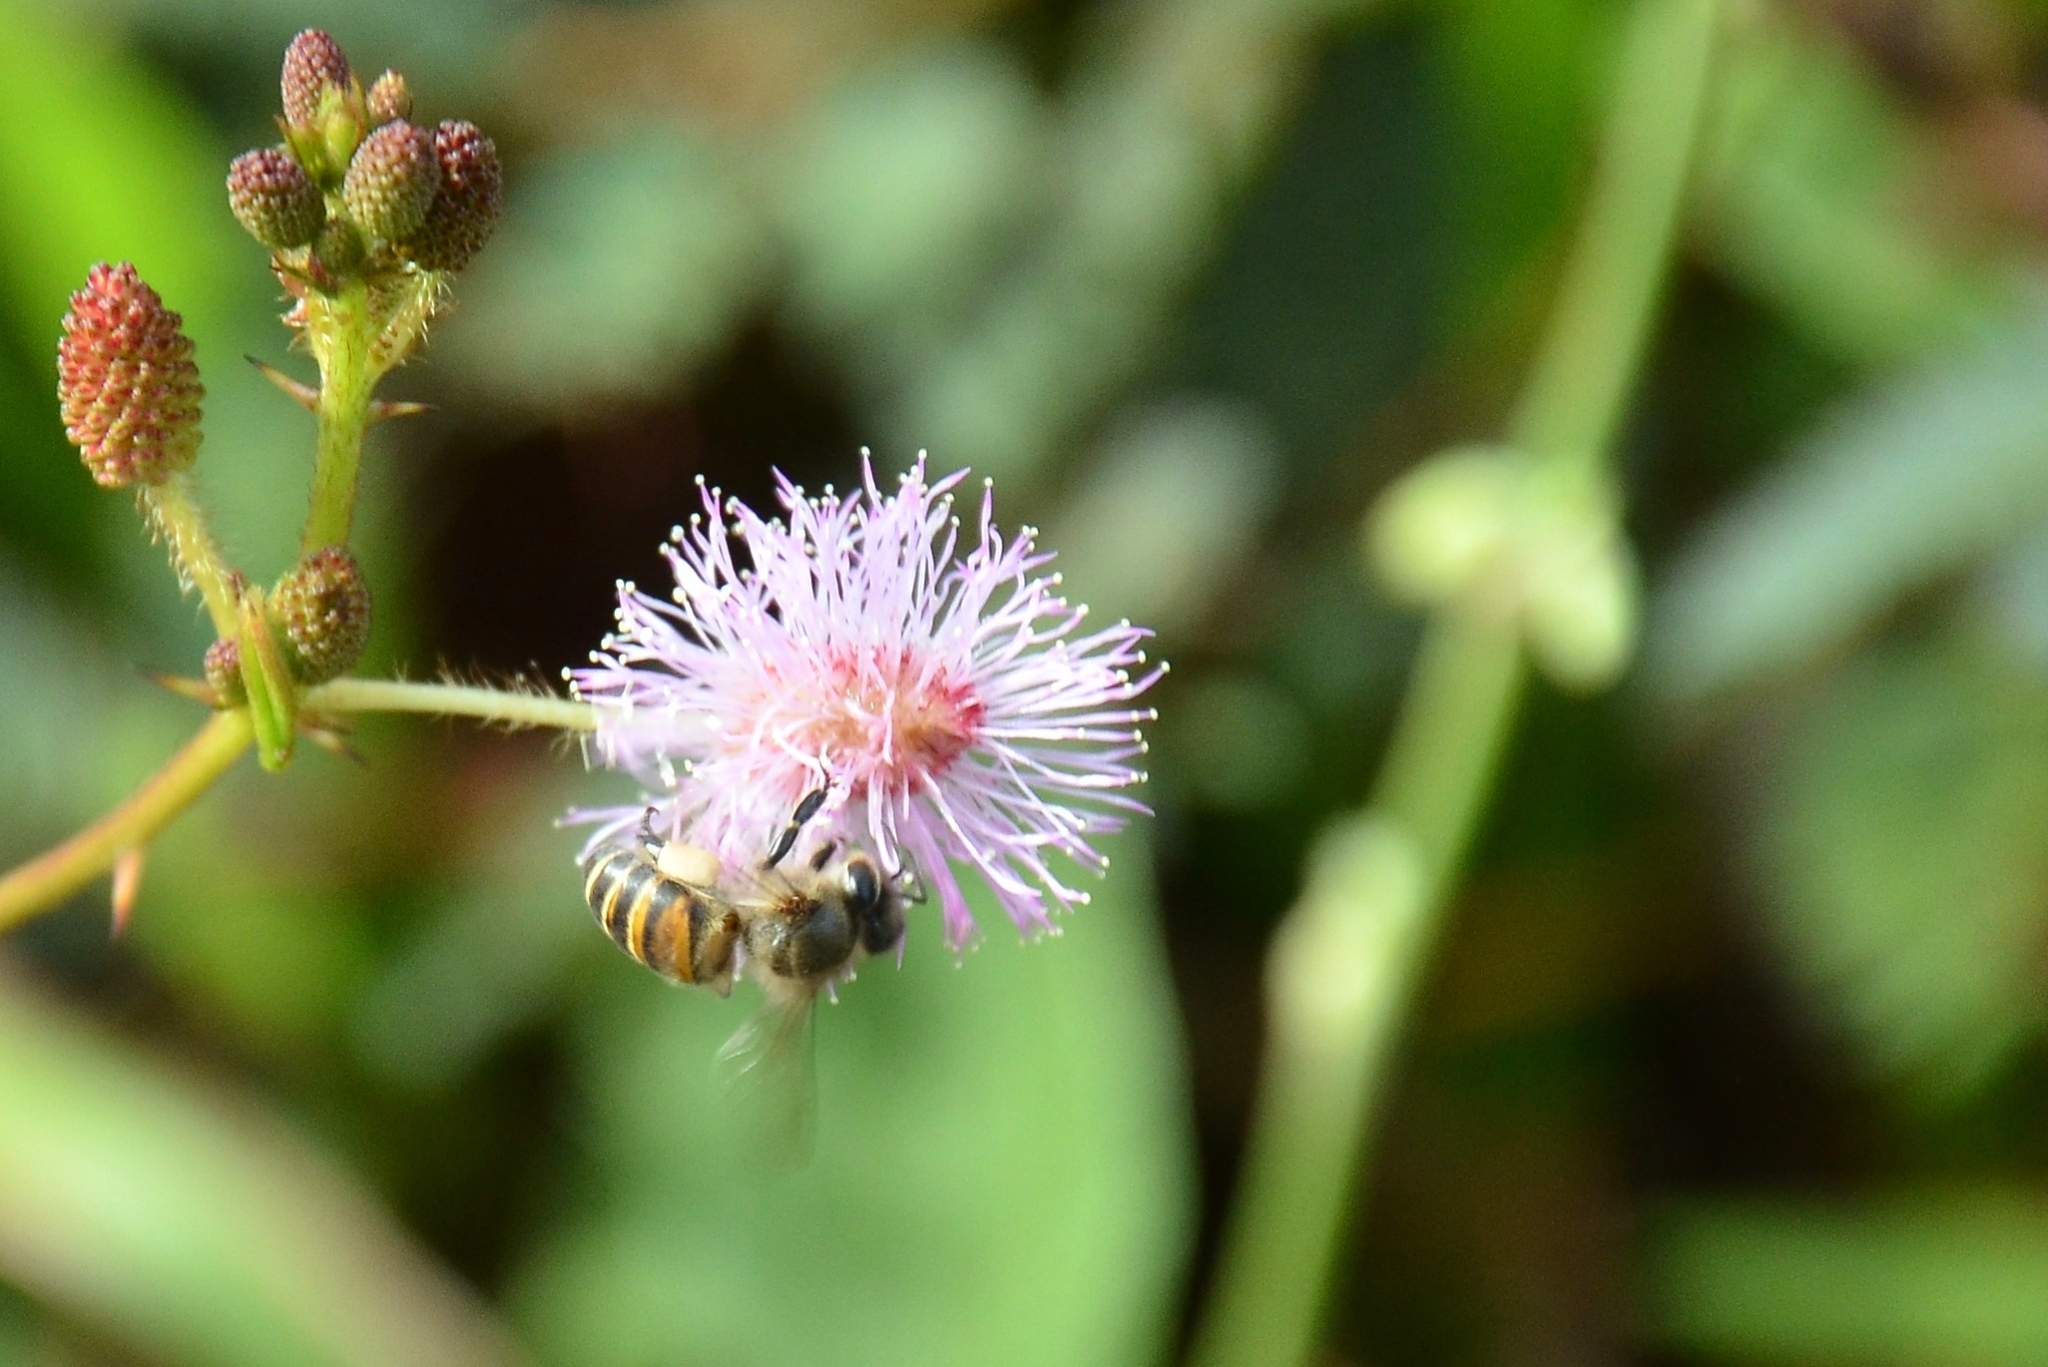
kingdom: Animalia
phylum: Arthropoda
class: Insecta
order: Hymenoptera
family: Apidae
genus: Apis
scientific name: Apis cerana
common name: Honey bee
